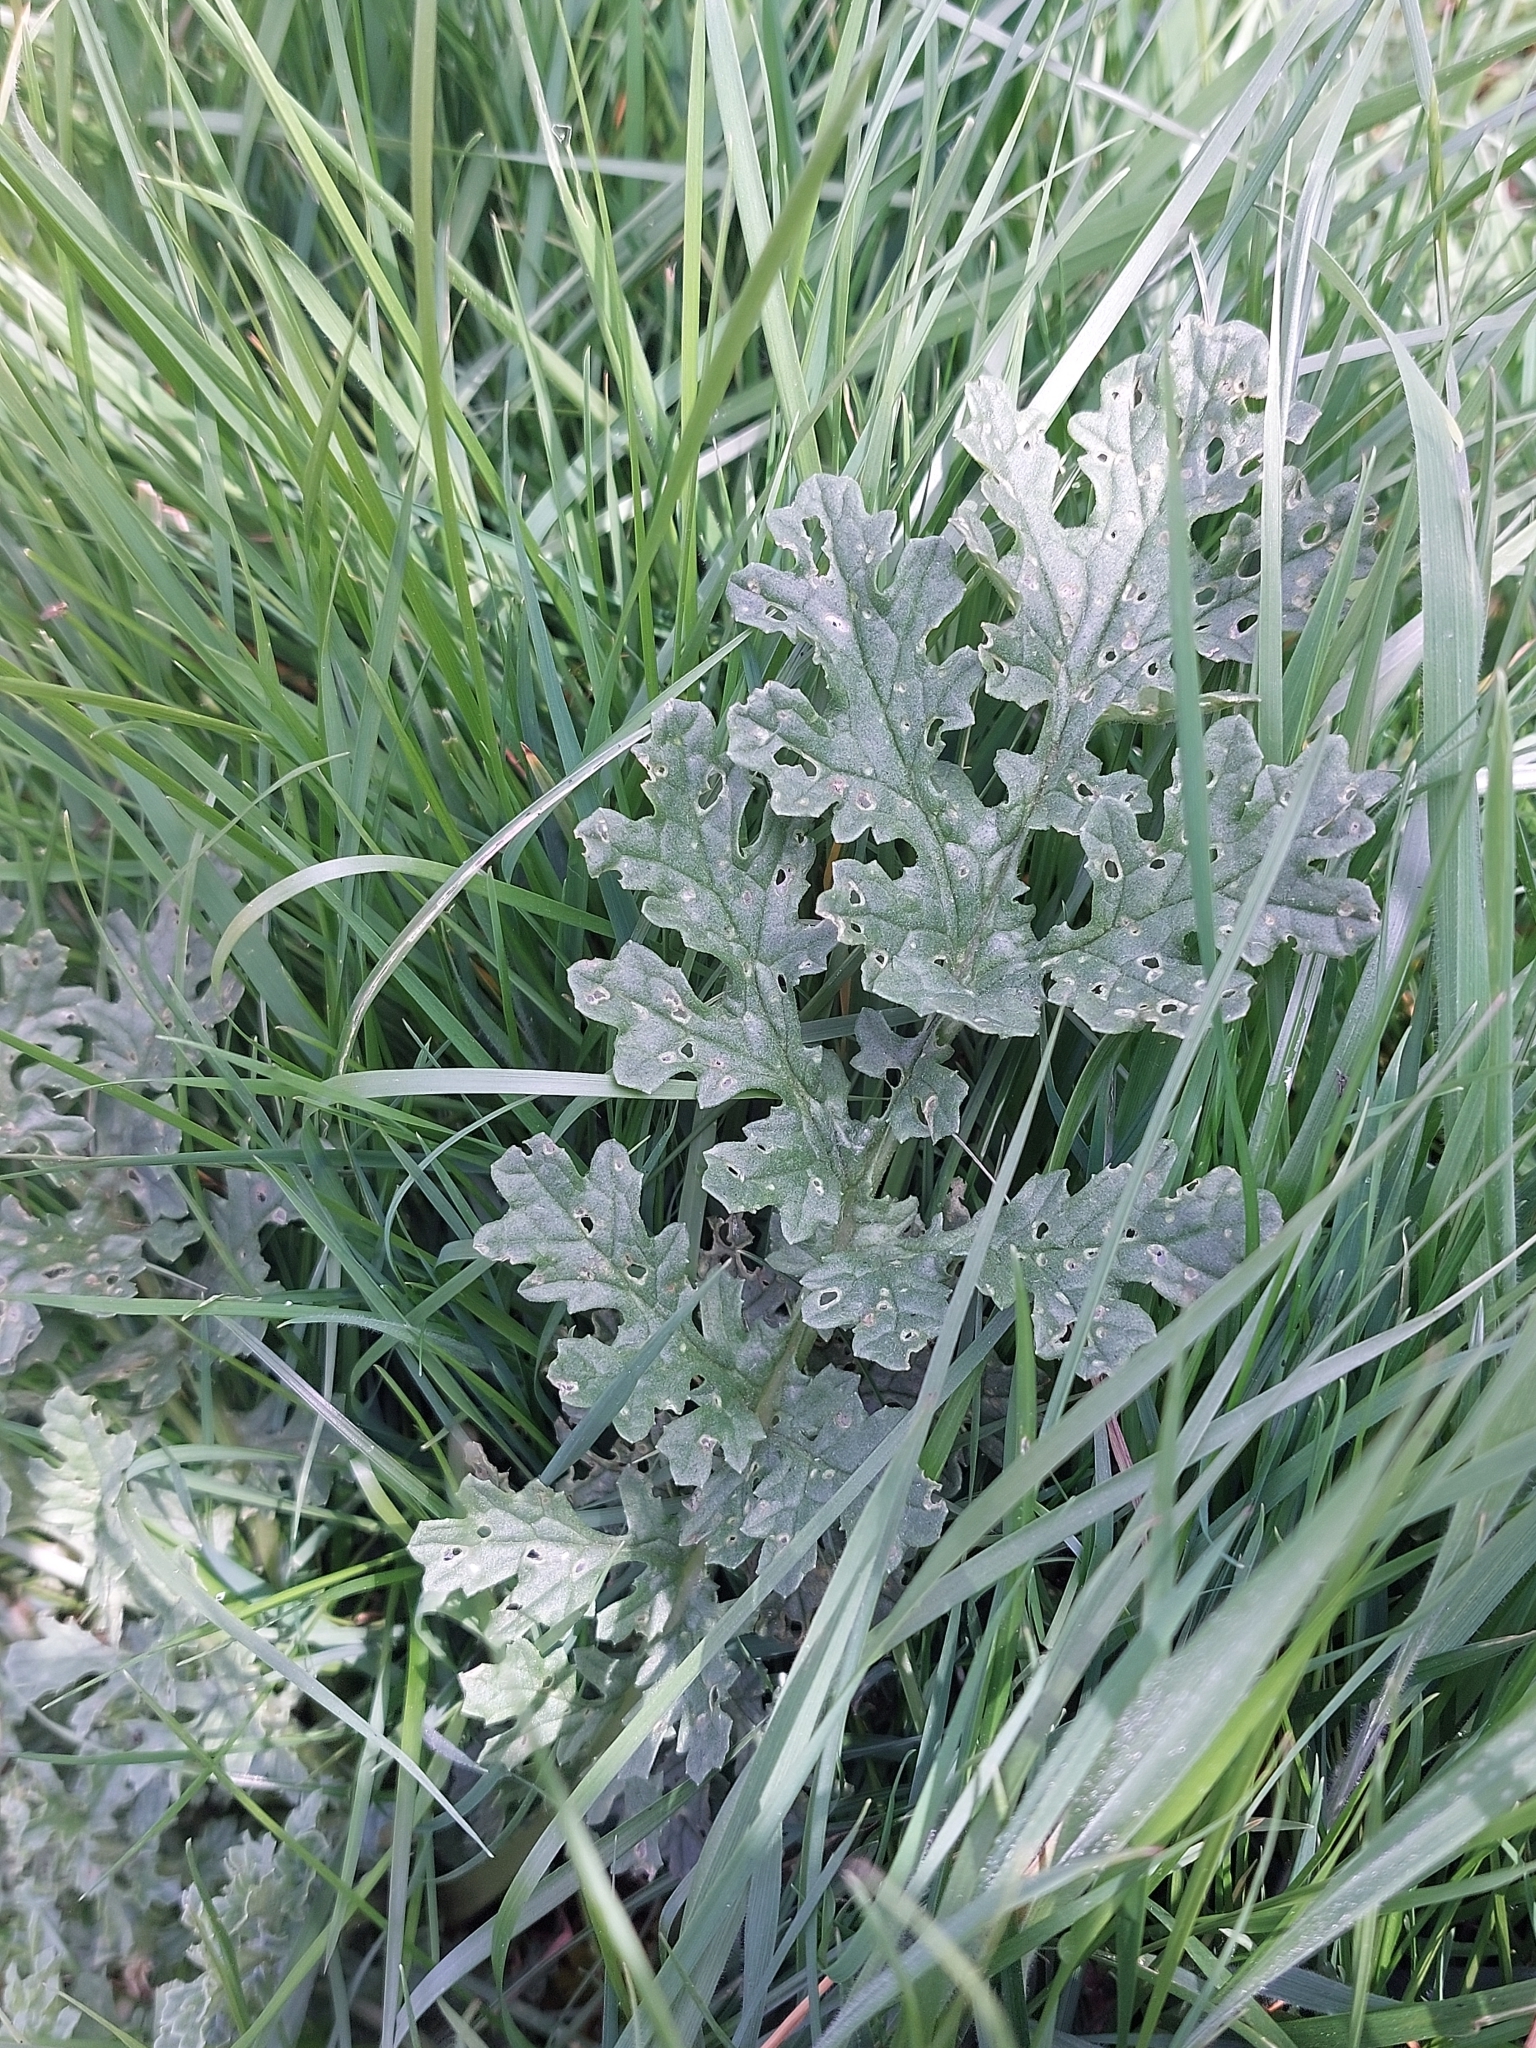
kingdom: Plantae
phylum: Tracheophyta
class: Magnoliopsida
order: Asterales
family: Asteraceae
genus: Jacobaea
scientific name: Jacobaea vulgaris
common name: Stinking willie
